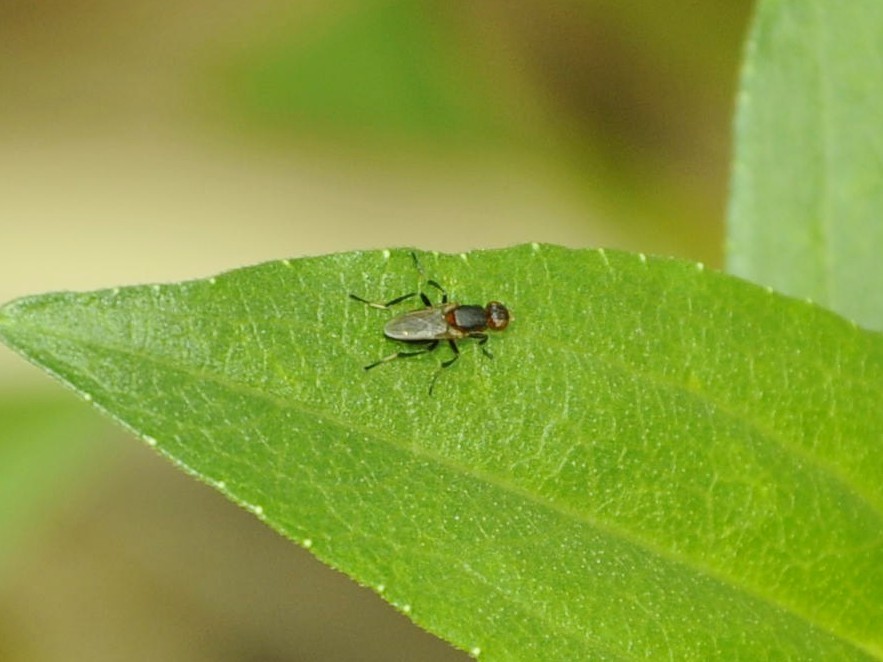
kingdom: Animalia
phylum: Arthropoda
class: Insecta
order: Diptera
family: Sepsidae
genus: Saltella
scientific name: Saltella setigera
